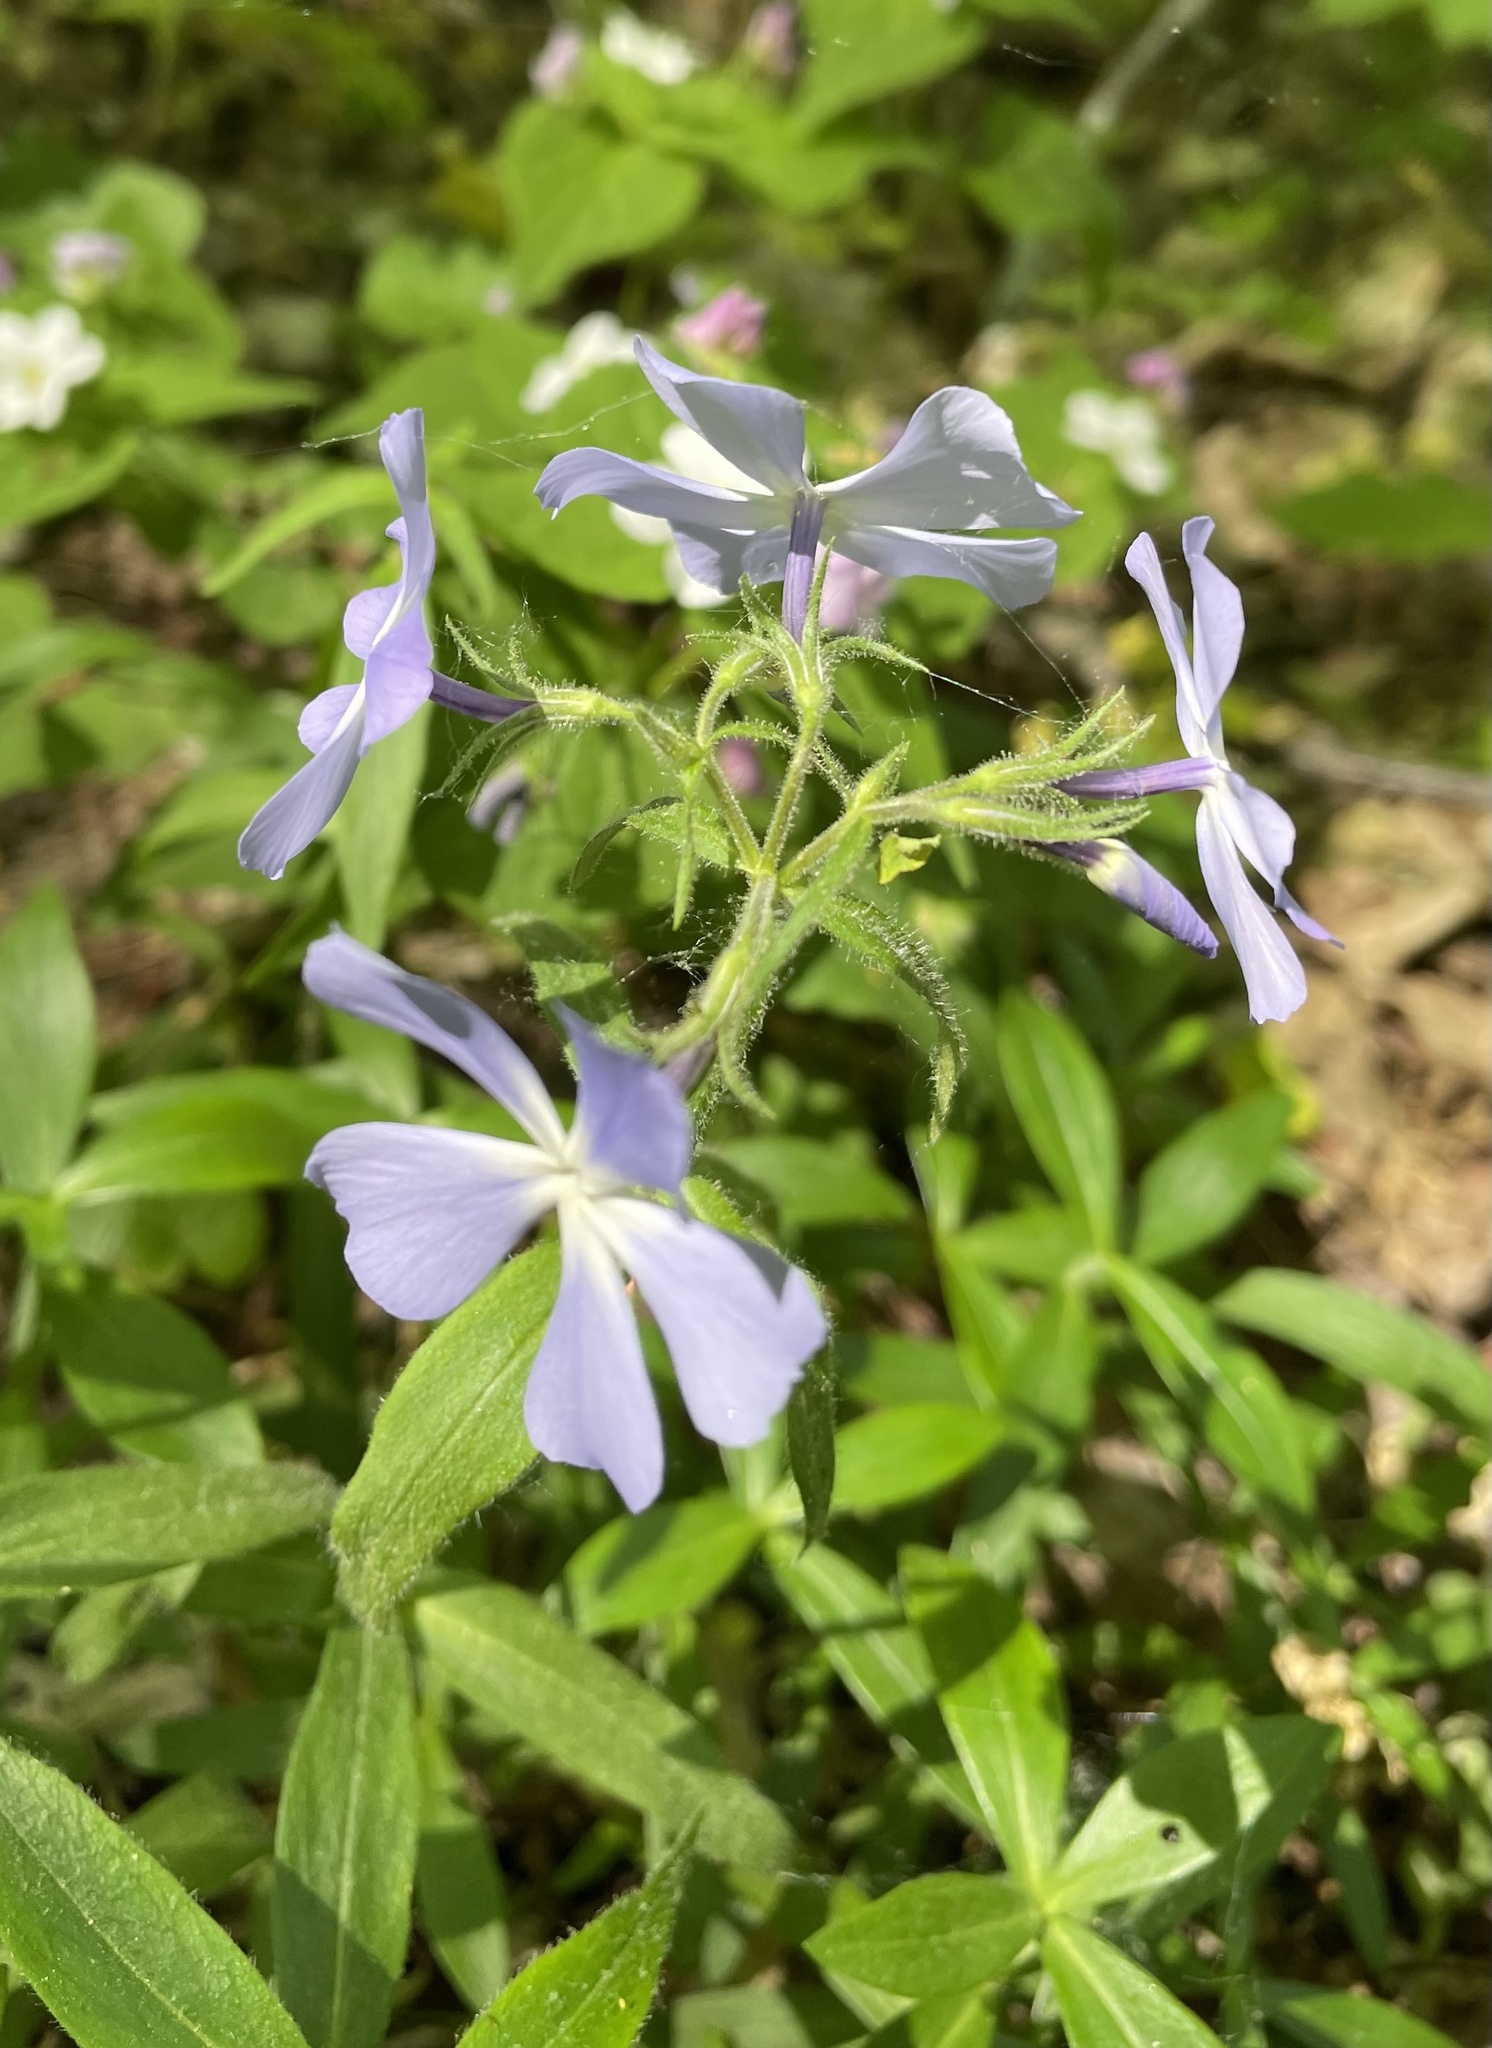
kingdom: Plantae
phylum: Tracheophyta
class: Magnoliopsida
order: Ericales
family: Polemoniaceae
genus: Phlox
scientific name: Phlox divaricata
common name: Blue phlox
